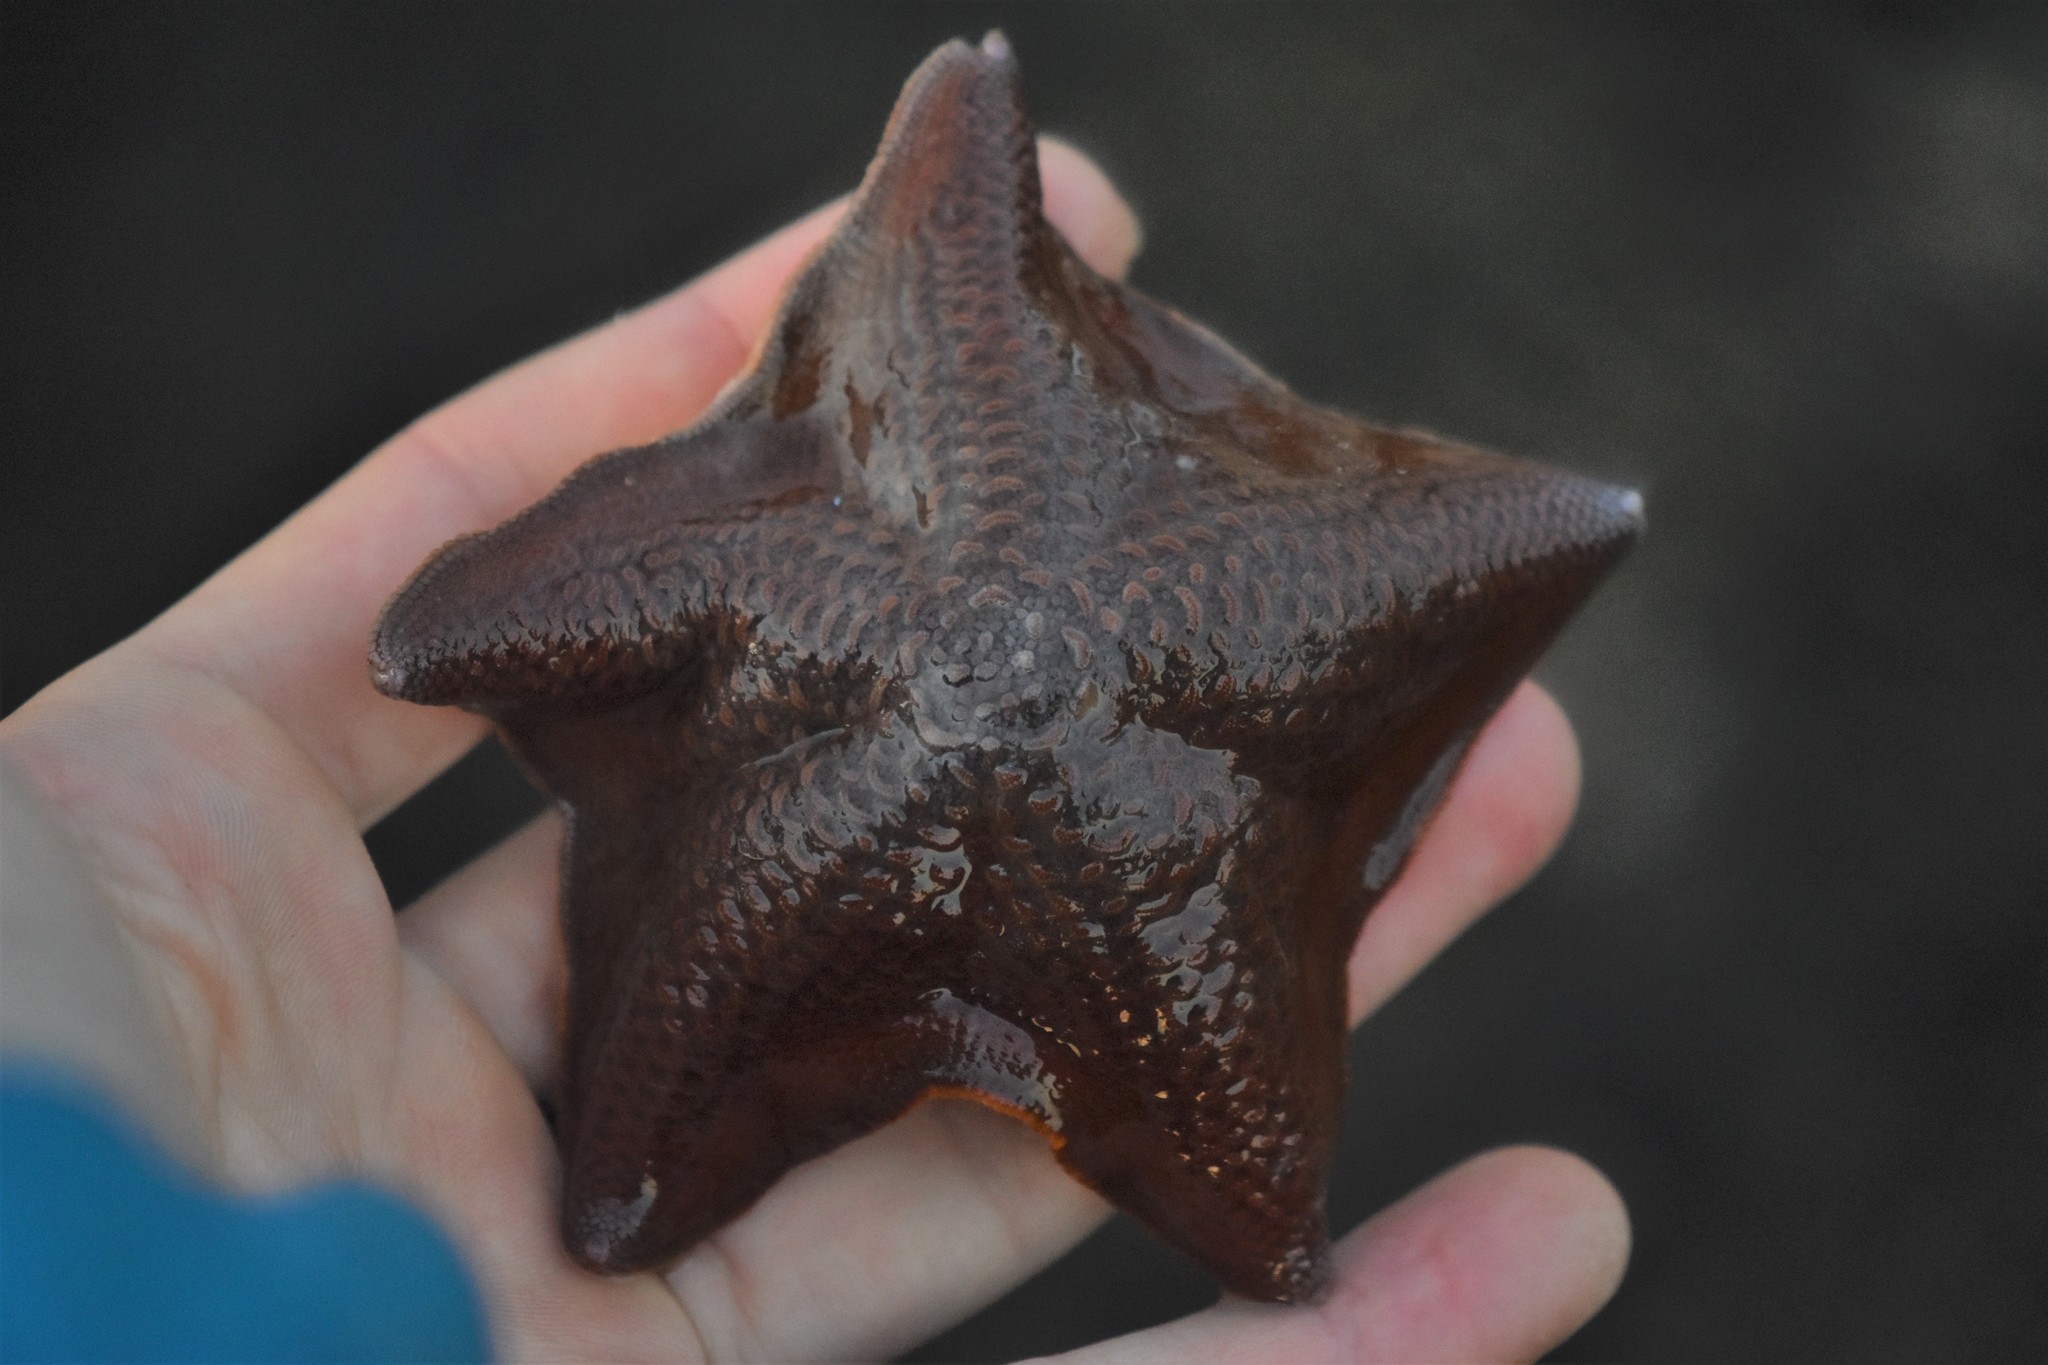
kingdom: Animalia
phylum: Echinodermata
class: Asteroidea
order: Valvatida
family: Asterinidae
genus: Patiria
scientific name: Patiria miniata
